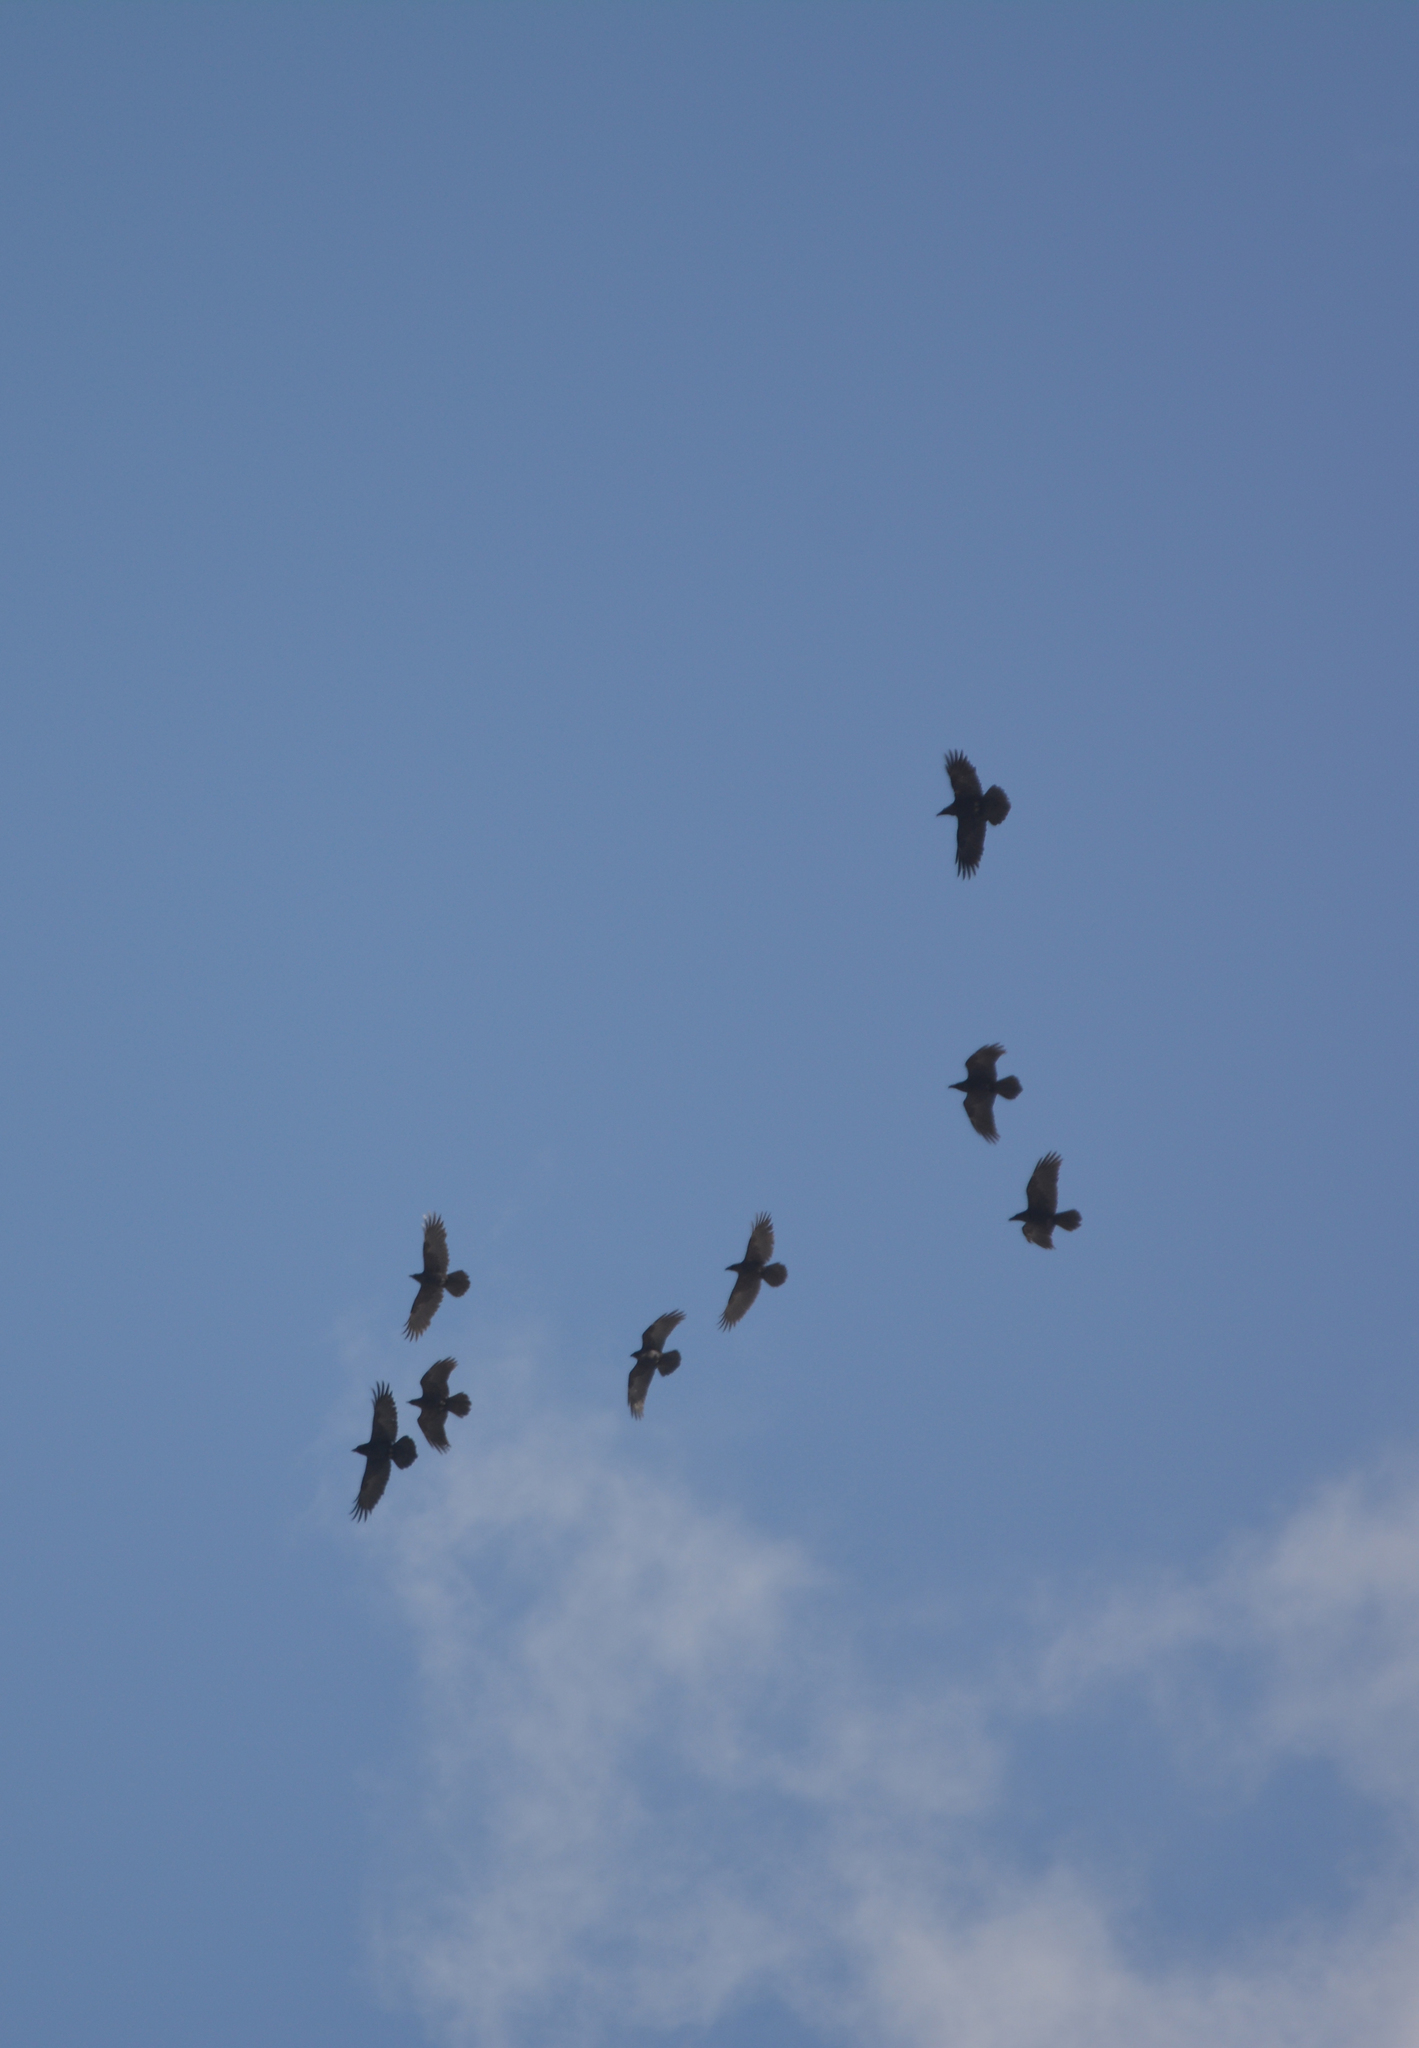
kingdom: Animalia
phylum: Chordata
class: Aves
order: Passeriformes
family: Corvidae
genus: Corvus
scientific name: Corvus corax
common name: Common raven
